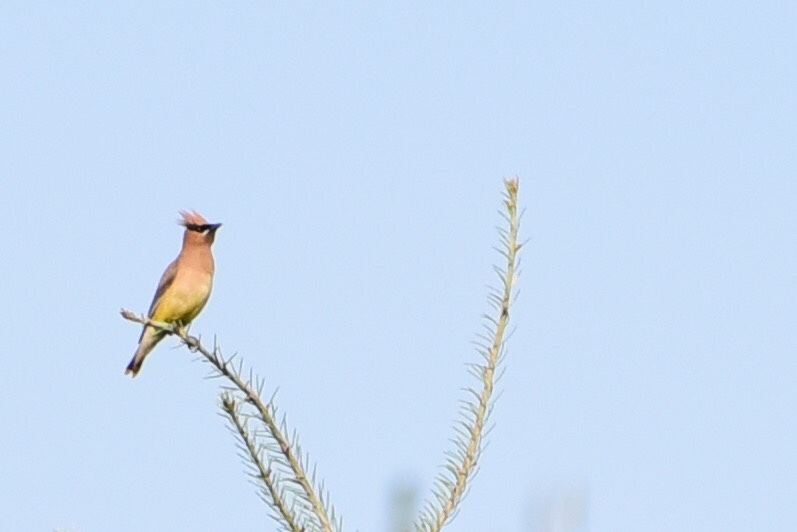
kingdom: Animalia
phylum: Chordata
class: Aves
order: Passeriformes
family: Bombycillidae
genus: Bombycilla
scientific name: Bombycilla cedrorum
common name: Cedar waxwing
